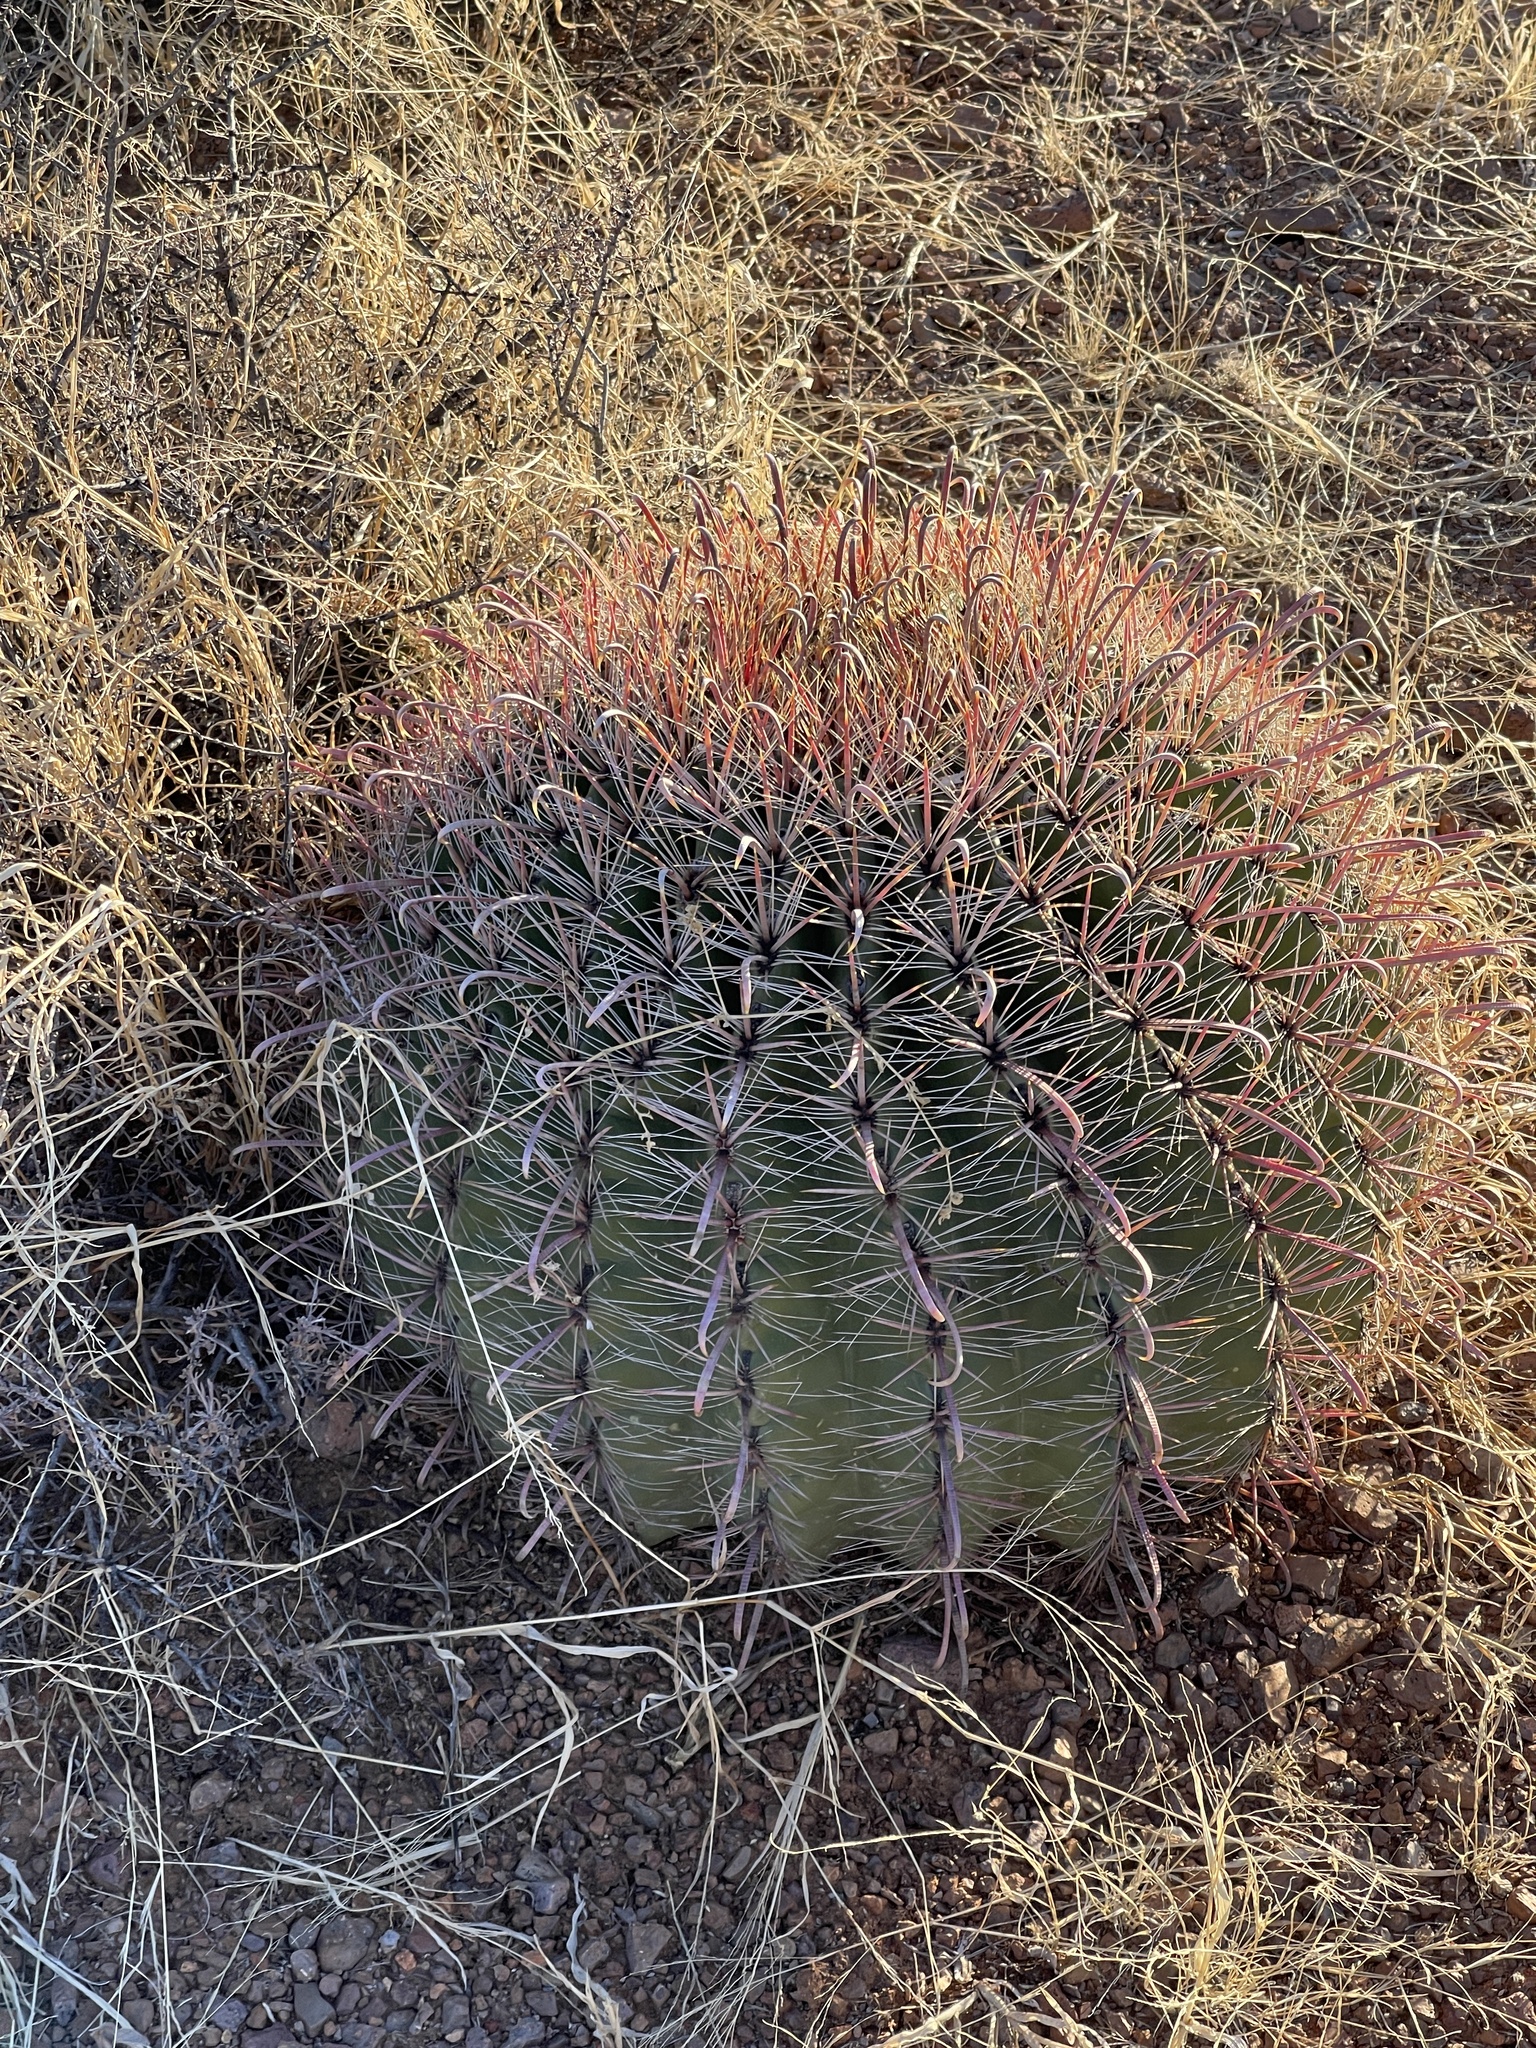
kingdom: Plantae
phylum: Tracheophyta
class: Magnoliopsida
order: Caryophyllales
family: Cactaceae
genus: Ferocactus
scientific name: Ferocactus wislizeni
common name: Candy barrel cactus
